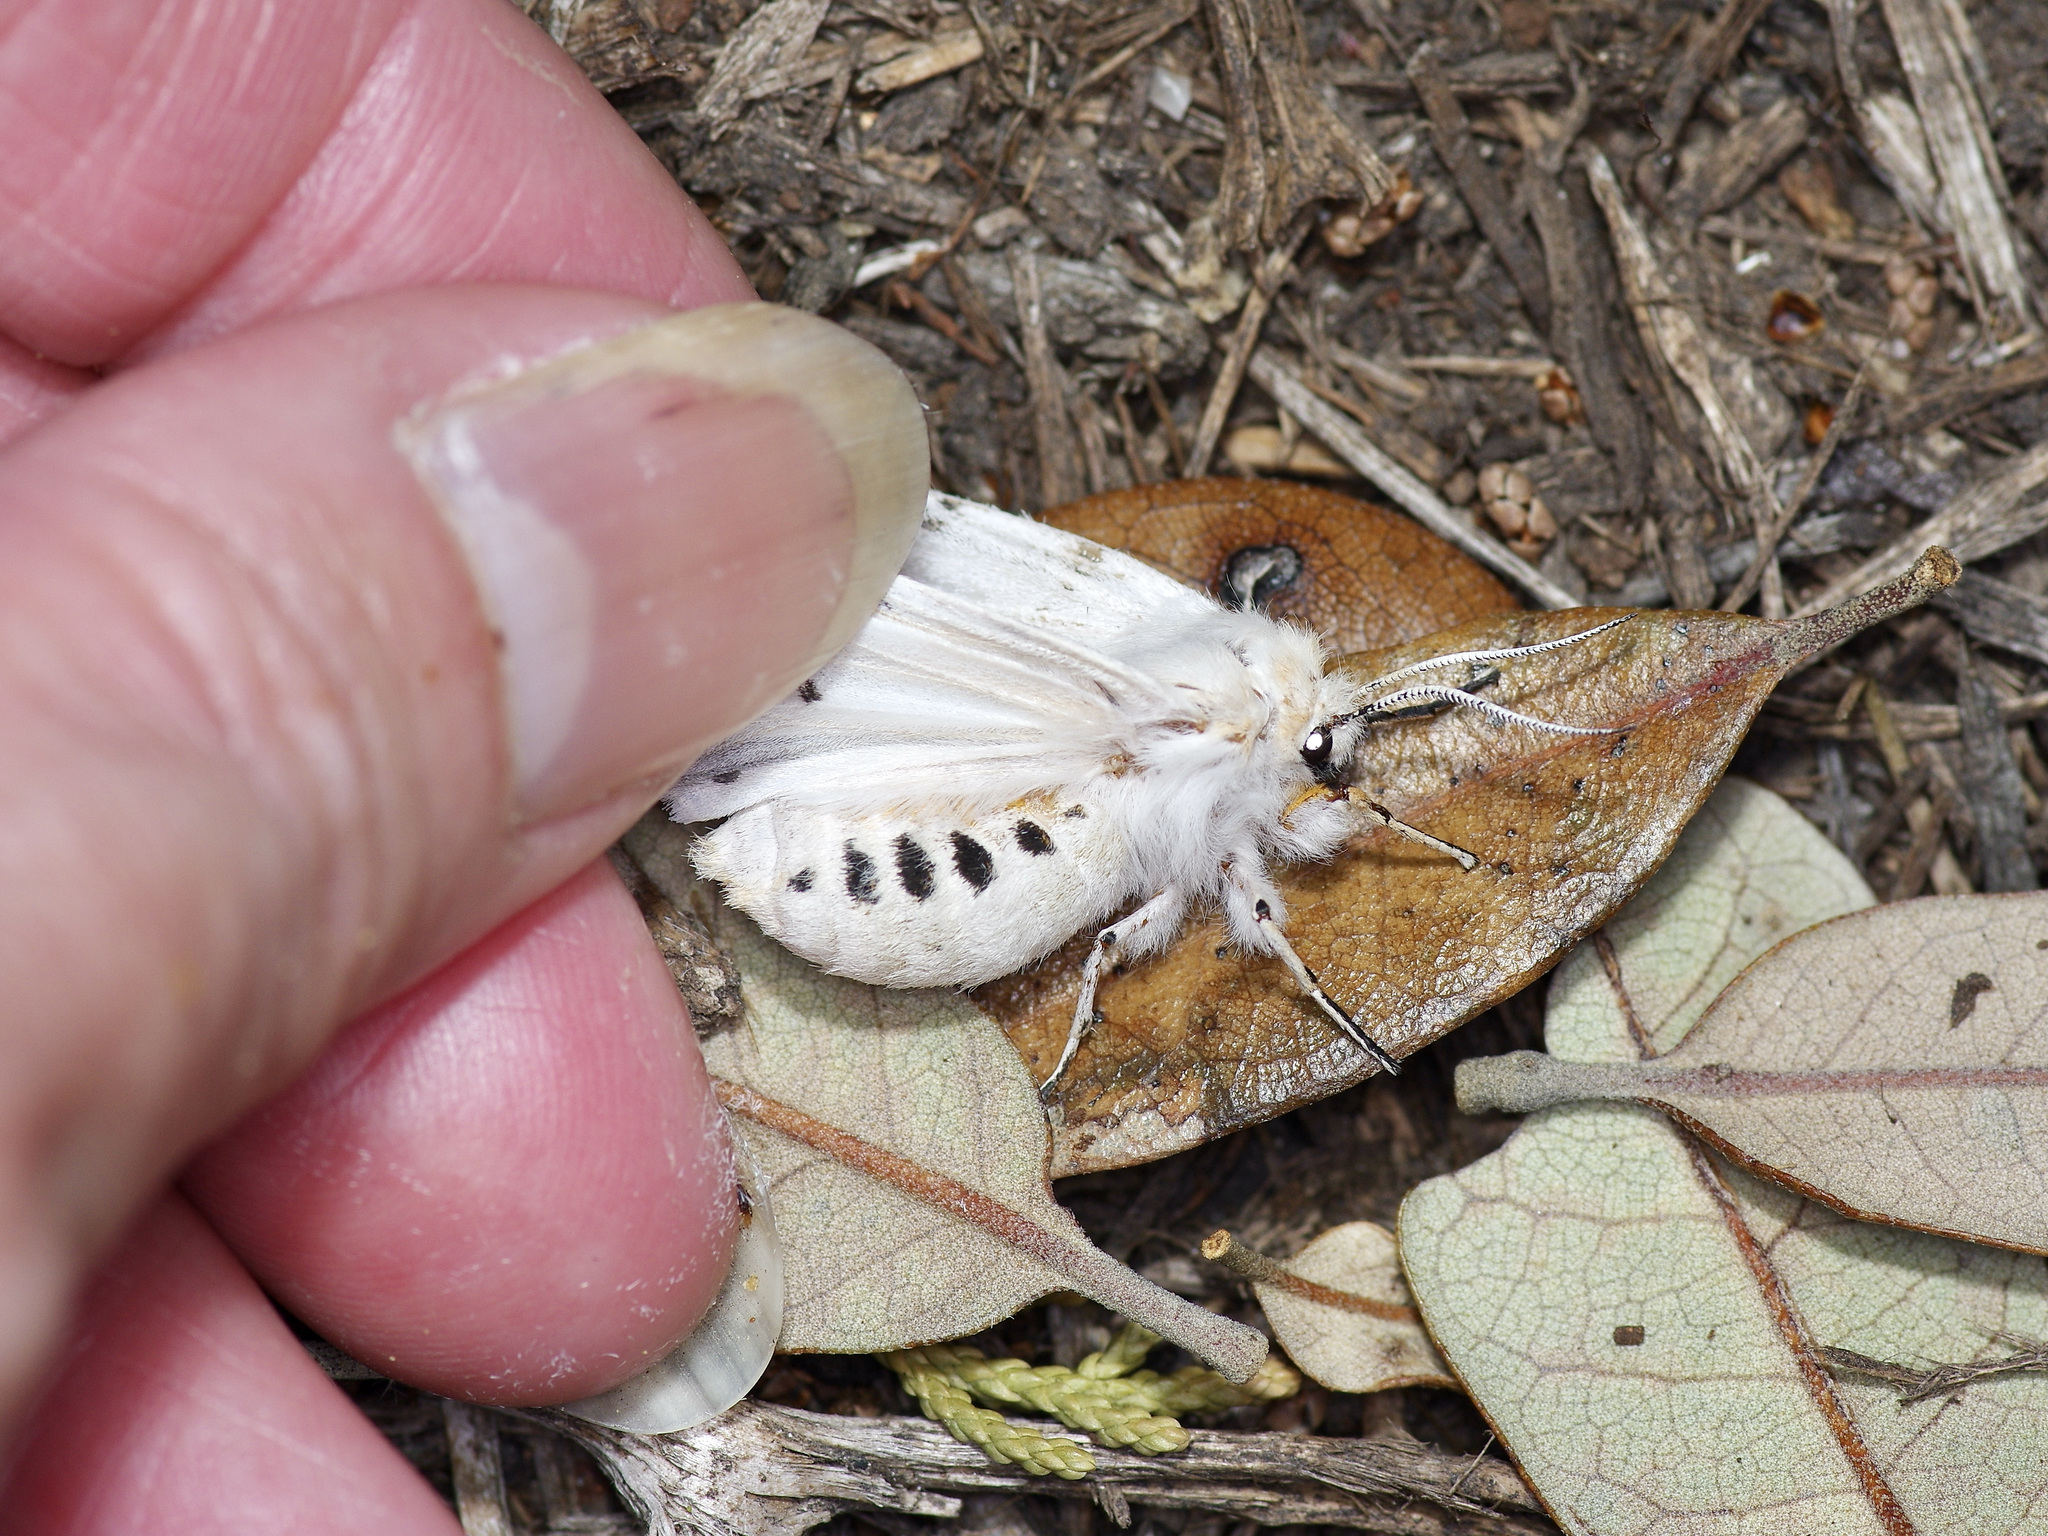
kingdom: Animalia
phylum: Arthropoda
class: Insecta
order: Lepidoptera
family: Erebidae
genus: Spilosoma
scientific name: Spilosoma dubia
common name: Dubious tiger moth
